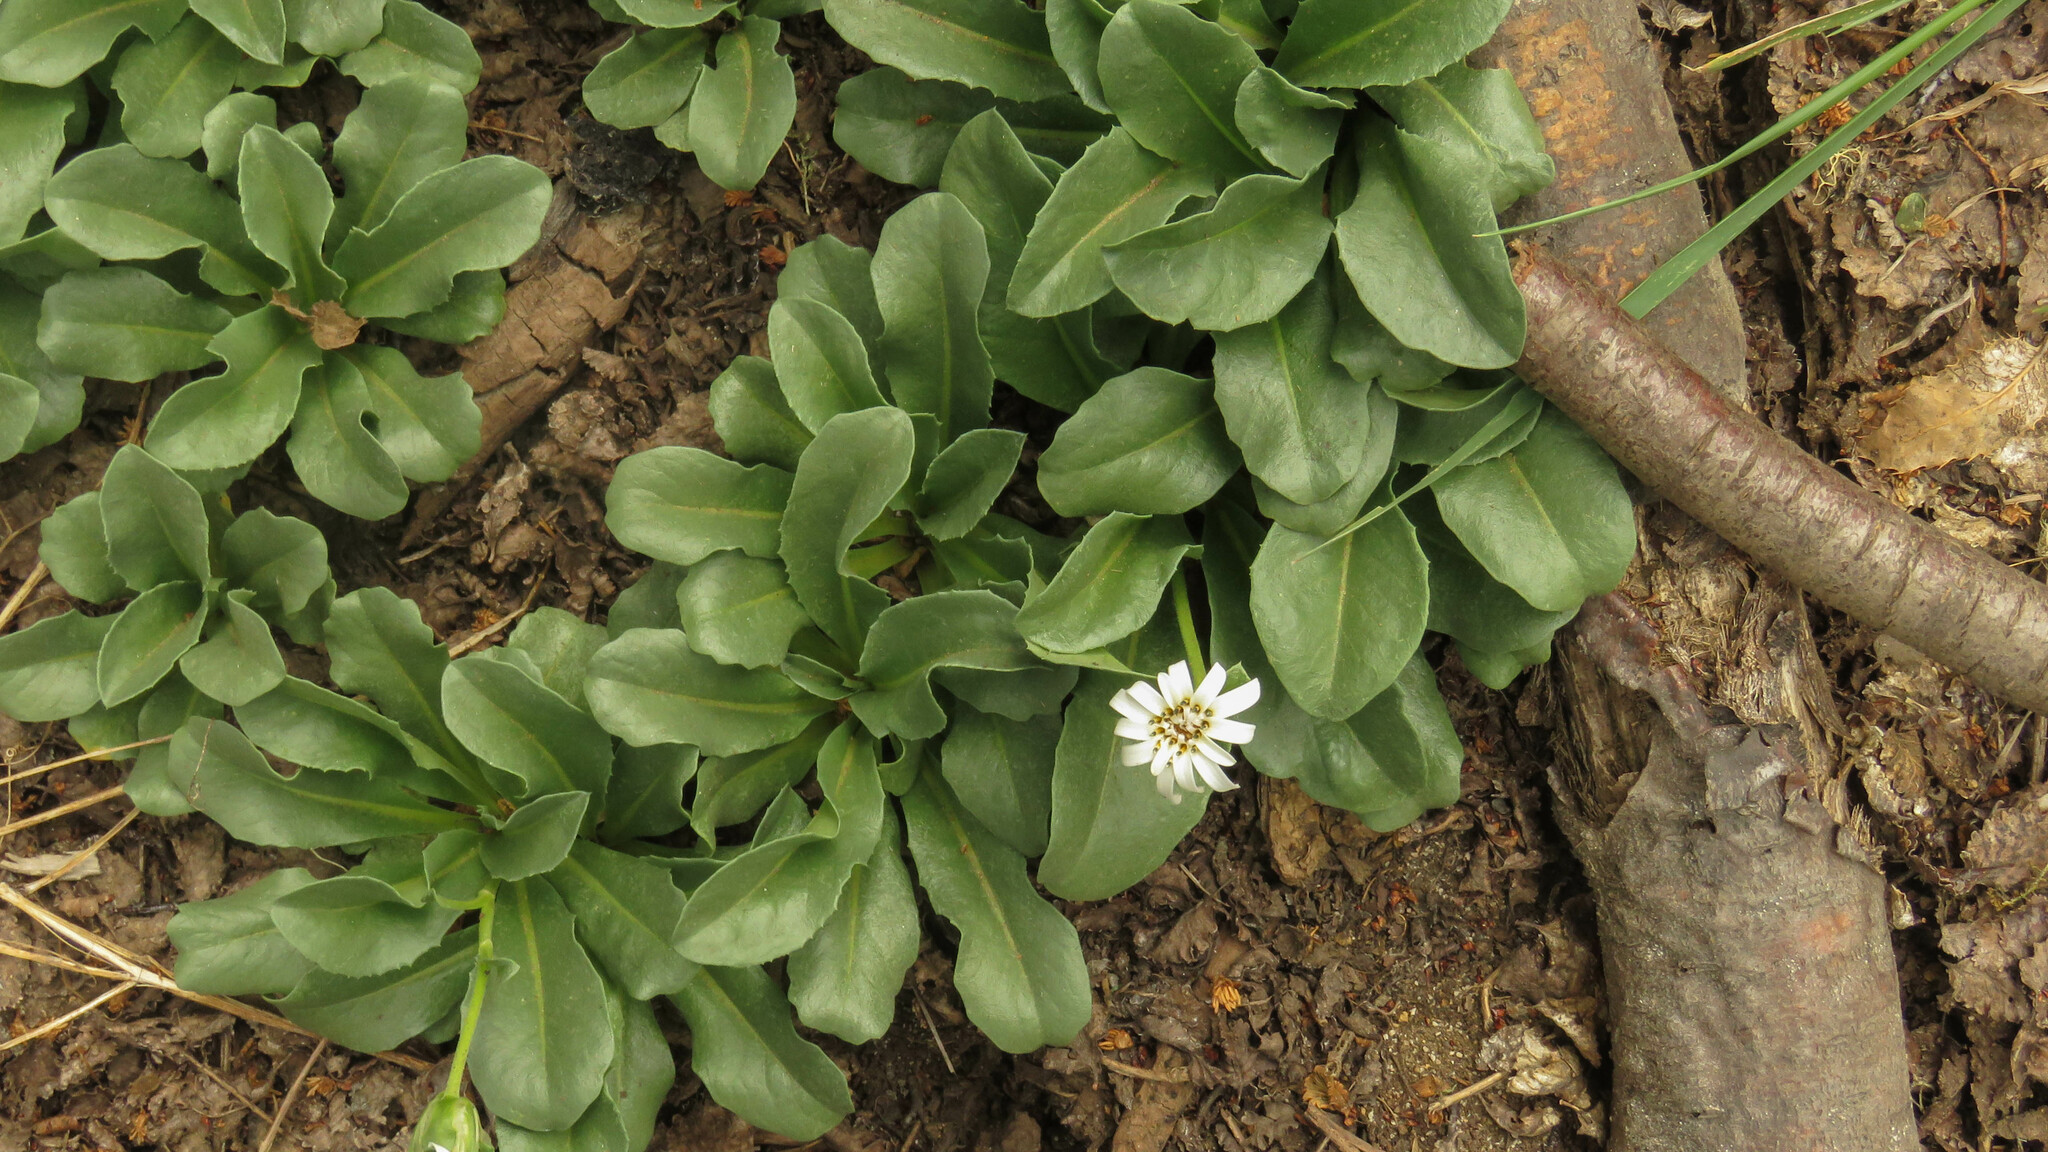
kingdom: Plantae
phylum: Tracheophyta
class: Magnoliopsida
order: Asterales
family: Asteraceae
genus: Perezia
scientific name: Perezia bellidifolia
